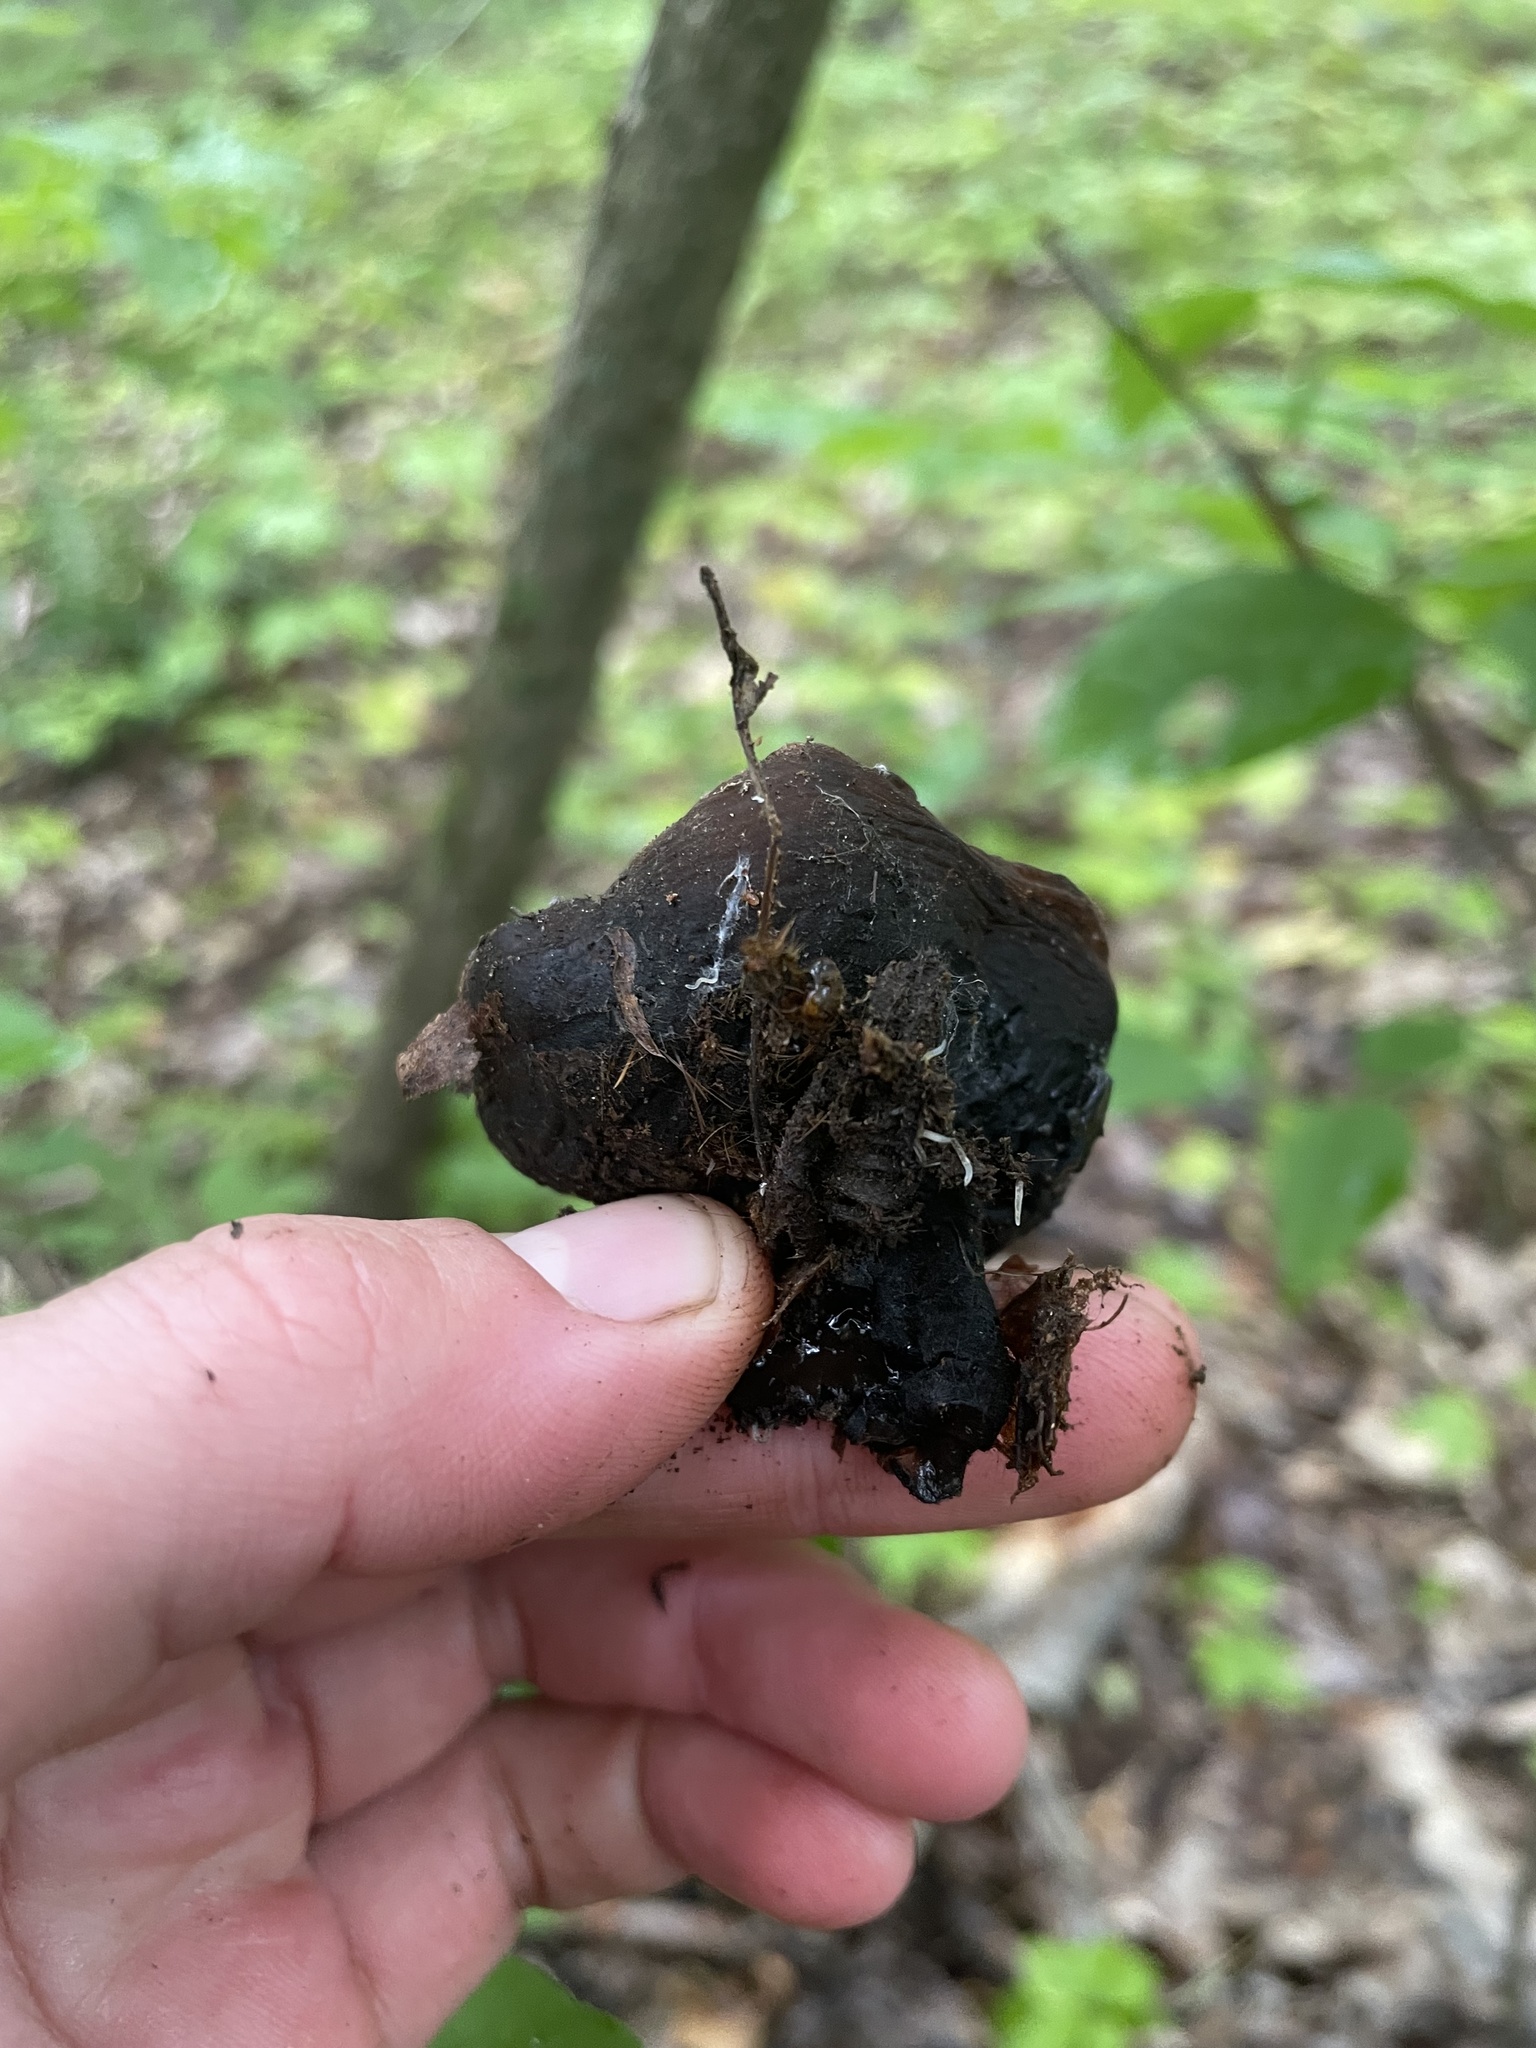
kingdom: Fungi
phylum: Ascomycota
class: Pezizomycetes
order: Pezizales
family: Sarcosomataceae
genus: Galiella
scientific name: Galiella rufa
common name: Hairy rubber cup
